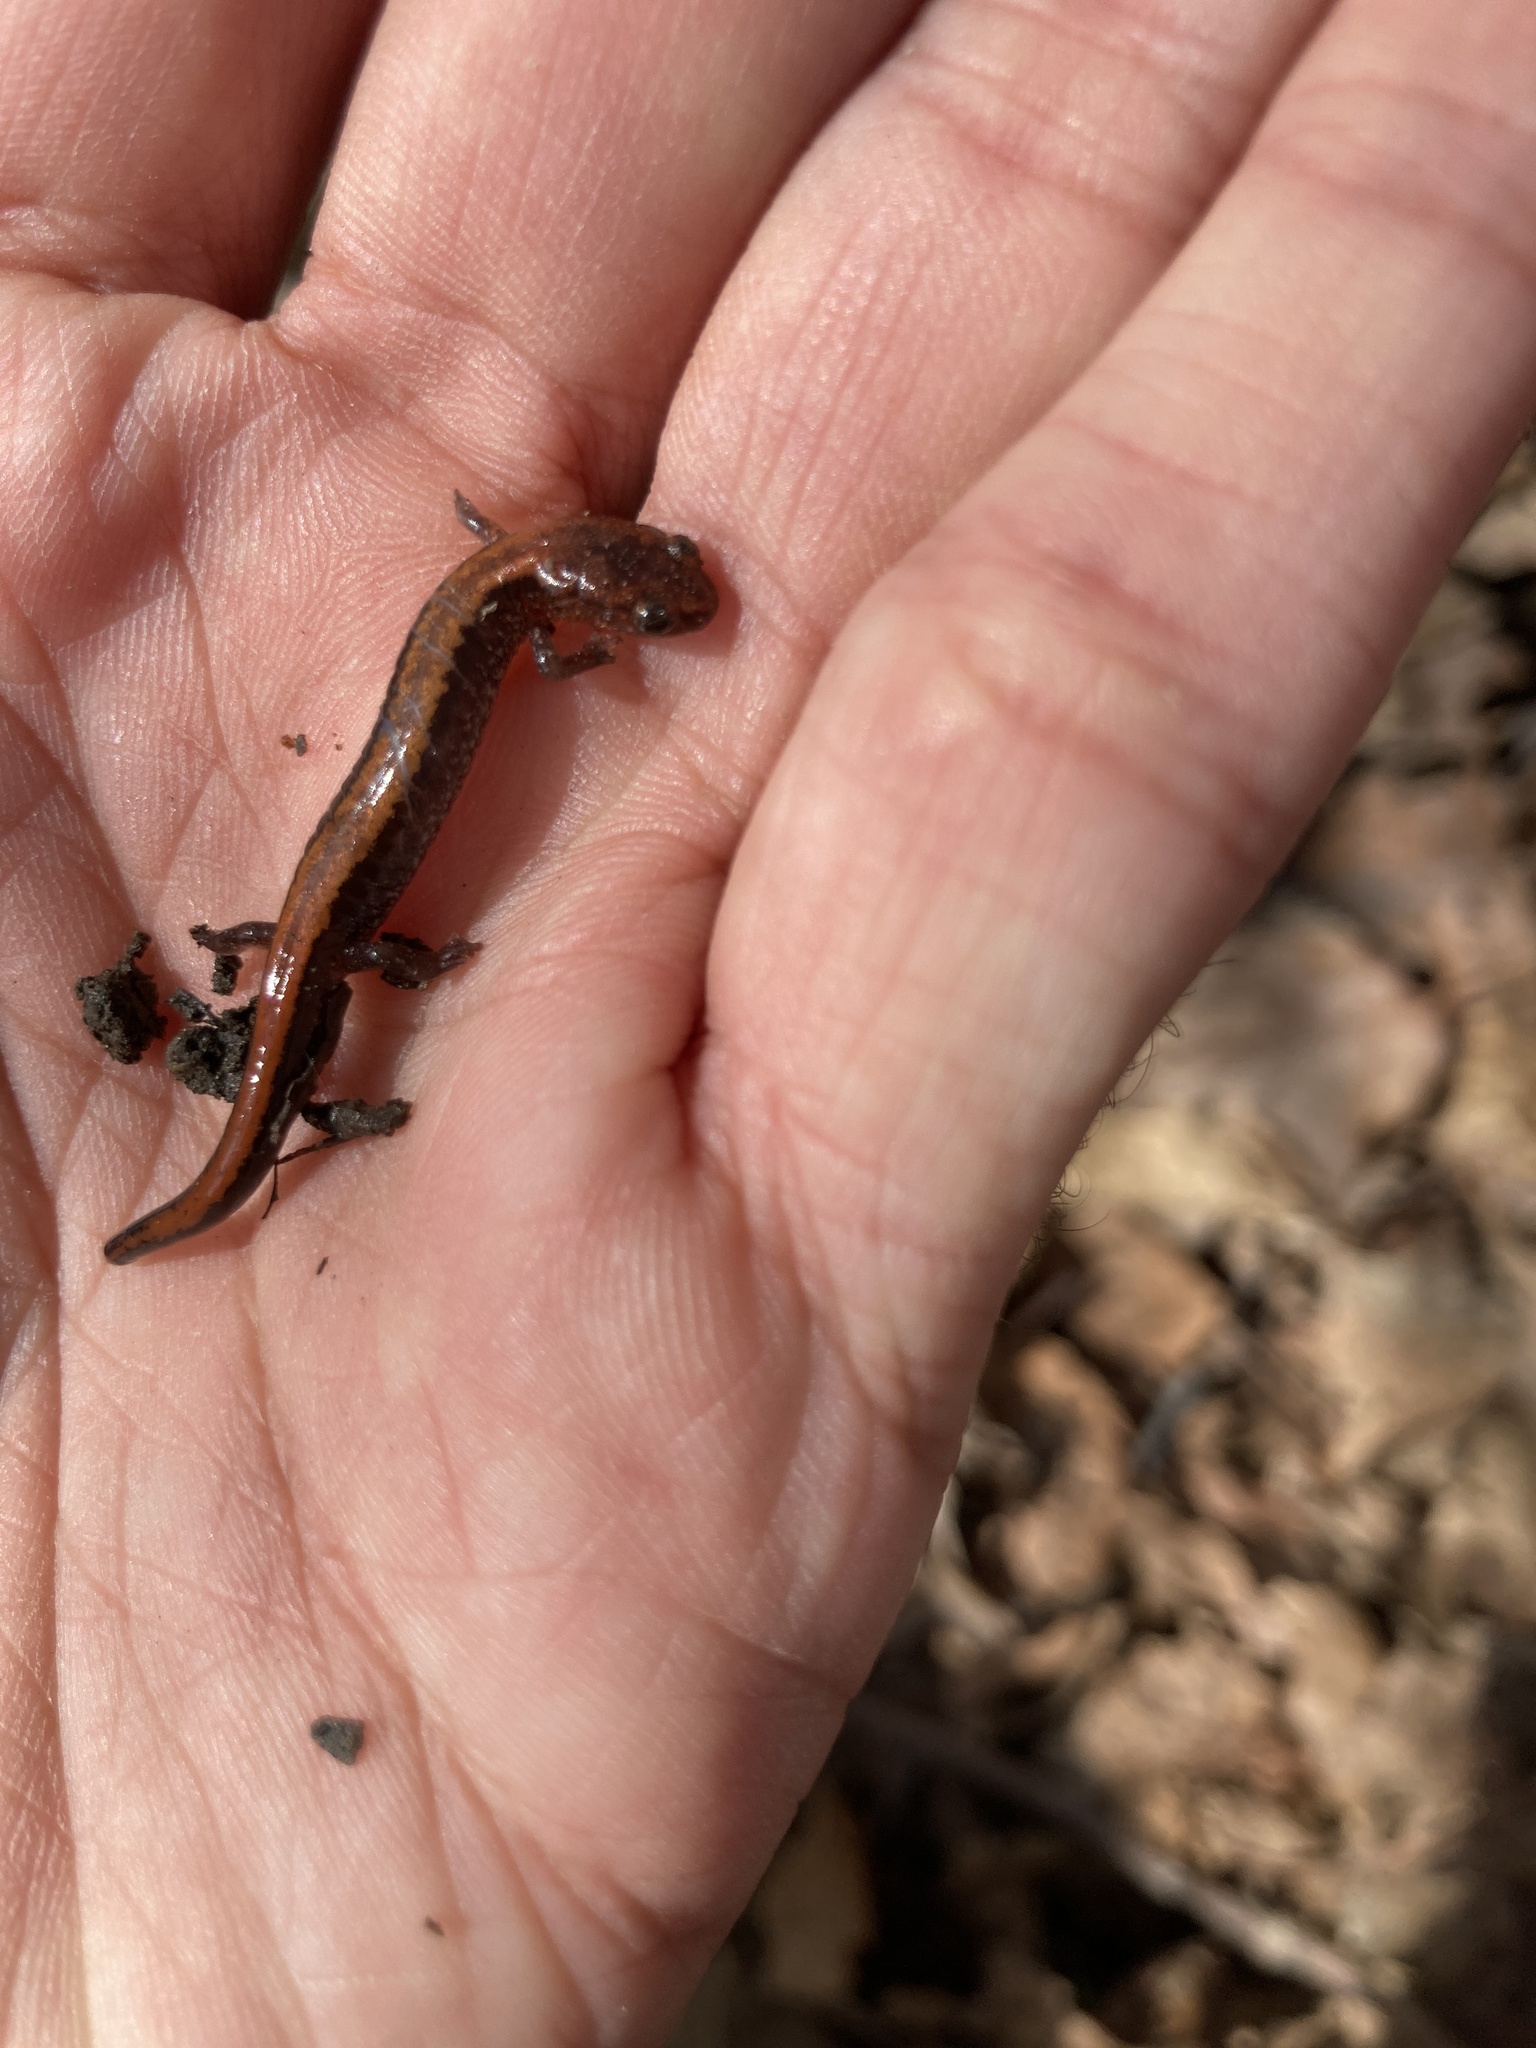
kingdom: Animalia
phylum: Chordata
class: Amphibia
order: Caudata
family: Plethodontidae
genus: Plethodon
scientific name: Plethodon cinereus
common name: Redback salamander
